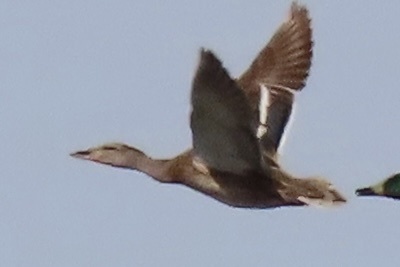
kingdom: Animalia
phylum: Chordata
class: Aves
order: Anseriformes
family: Anatidae
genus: Anas
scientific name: Anas platyrhynchos
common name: Mallard
